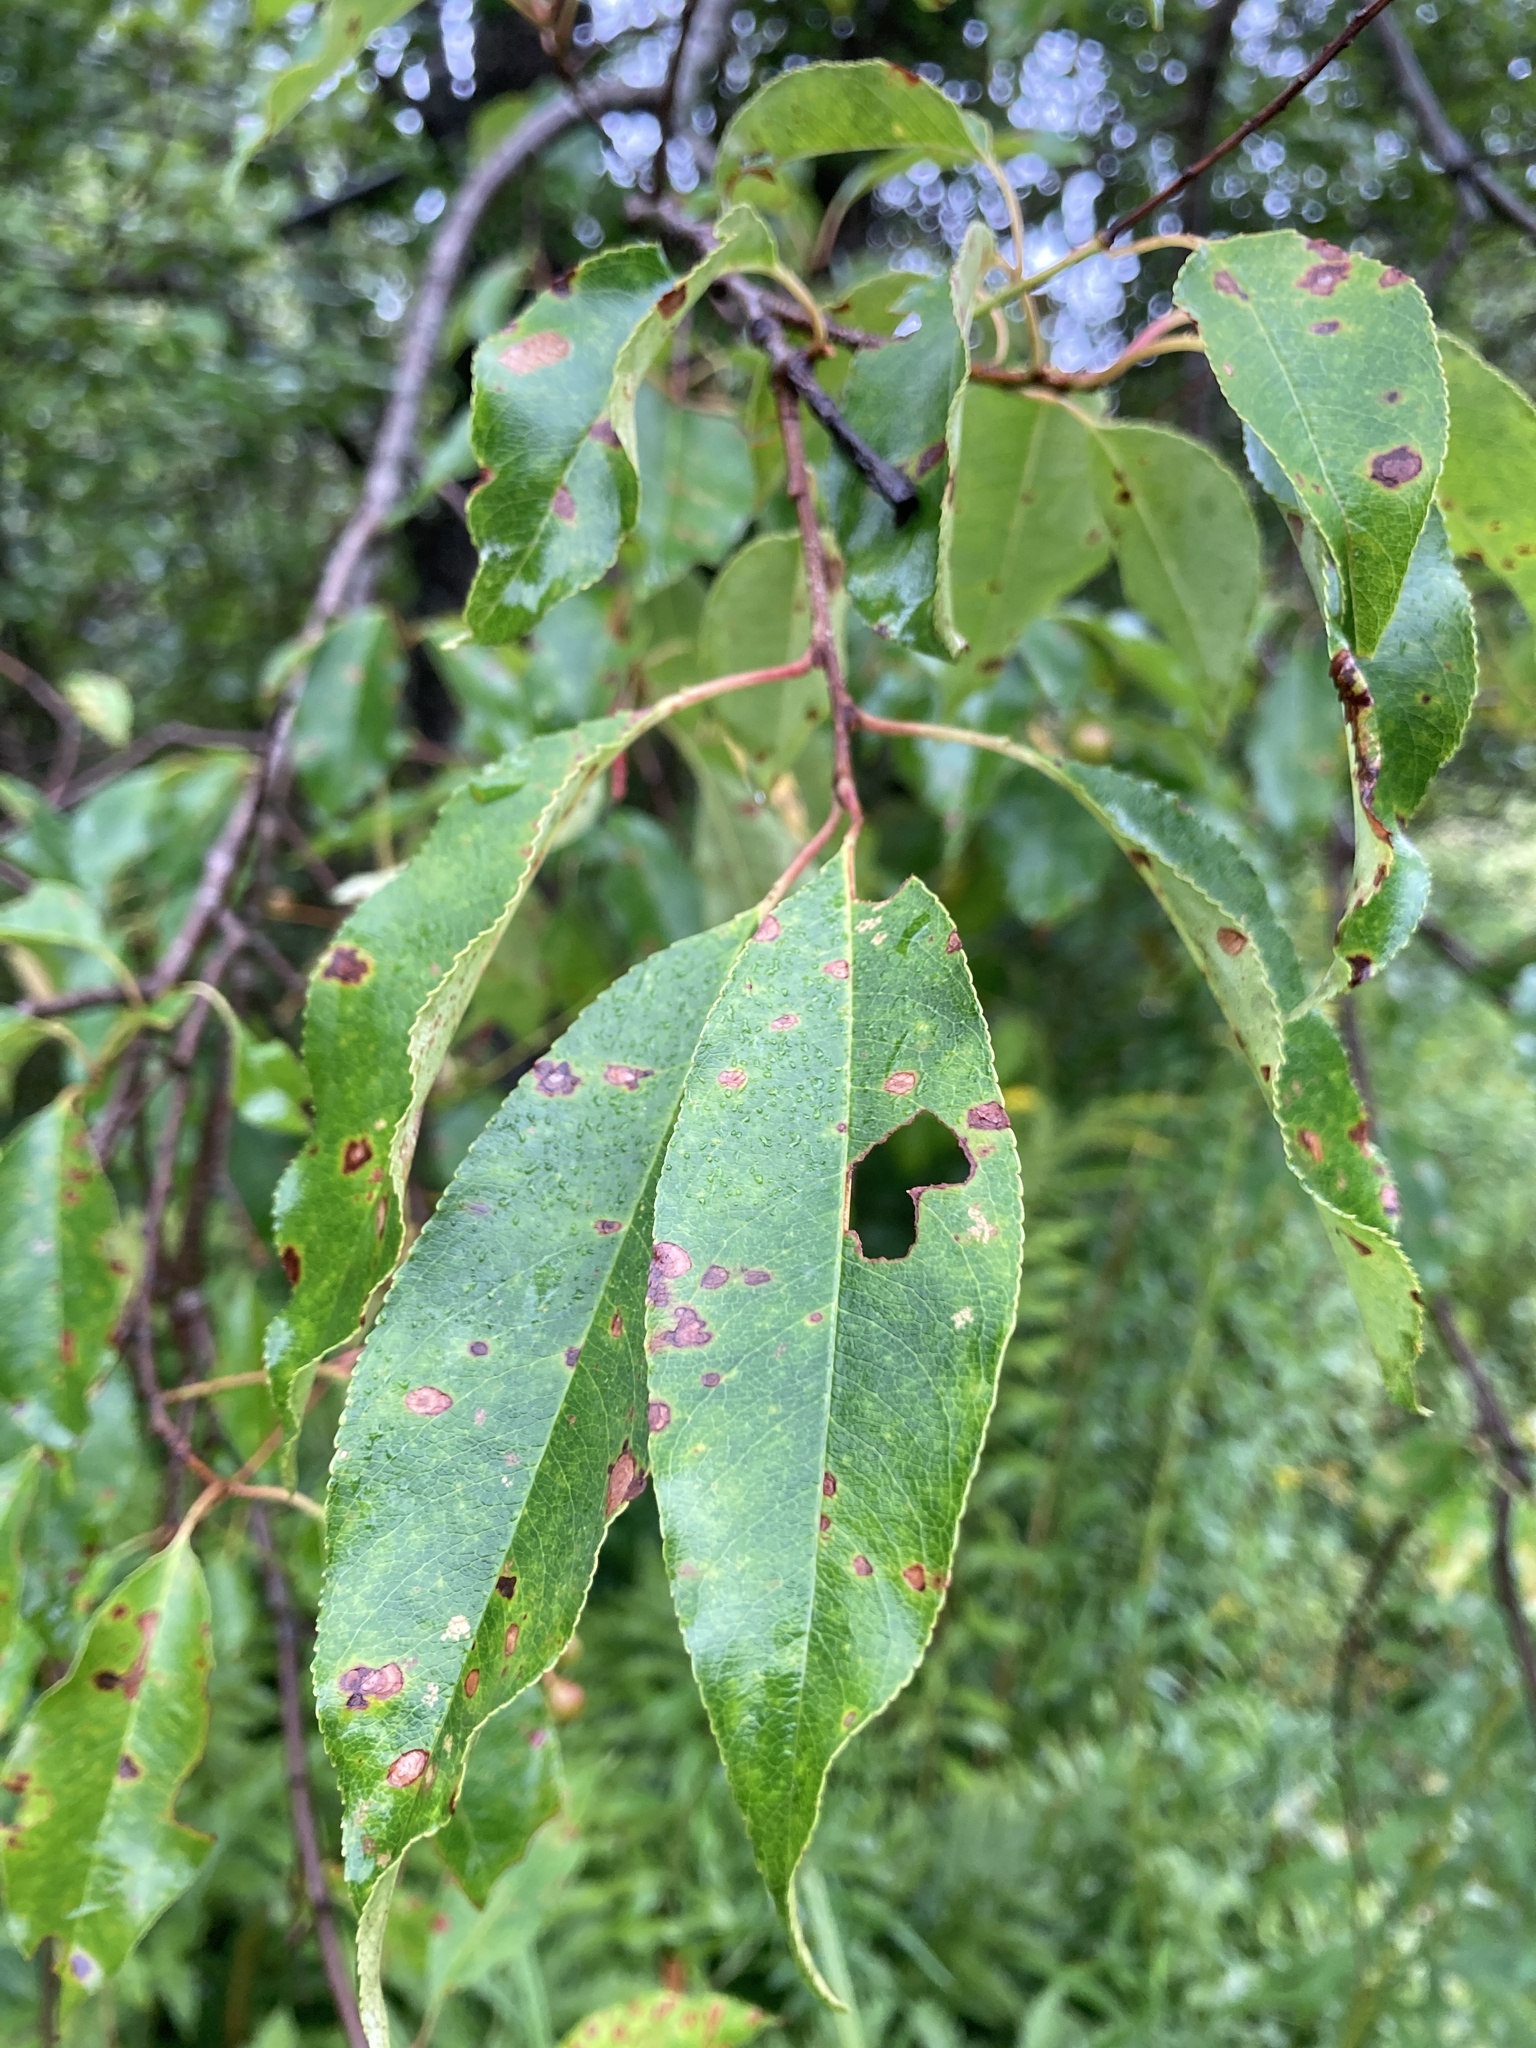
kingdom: Plantae
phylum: Tracheophyta
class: Magnoliopsida
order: Rosales
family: Rosaceae
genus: Prunus
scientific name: Prunus serotina
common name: Black cherry
